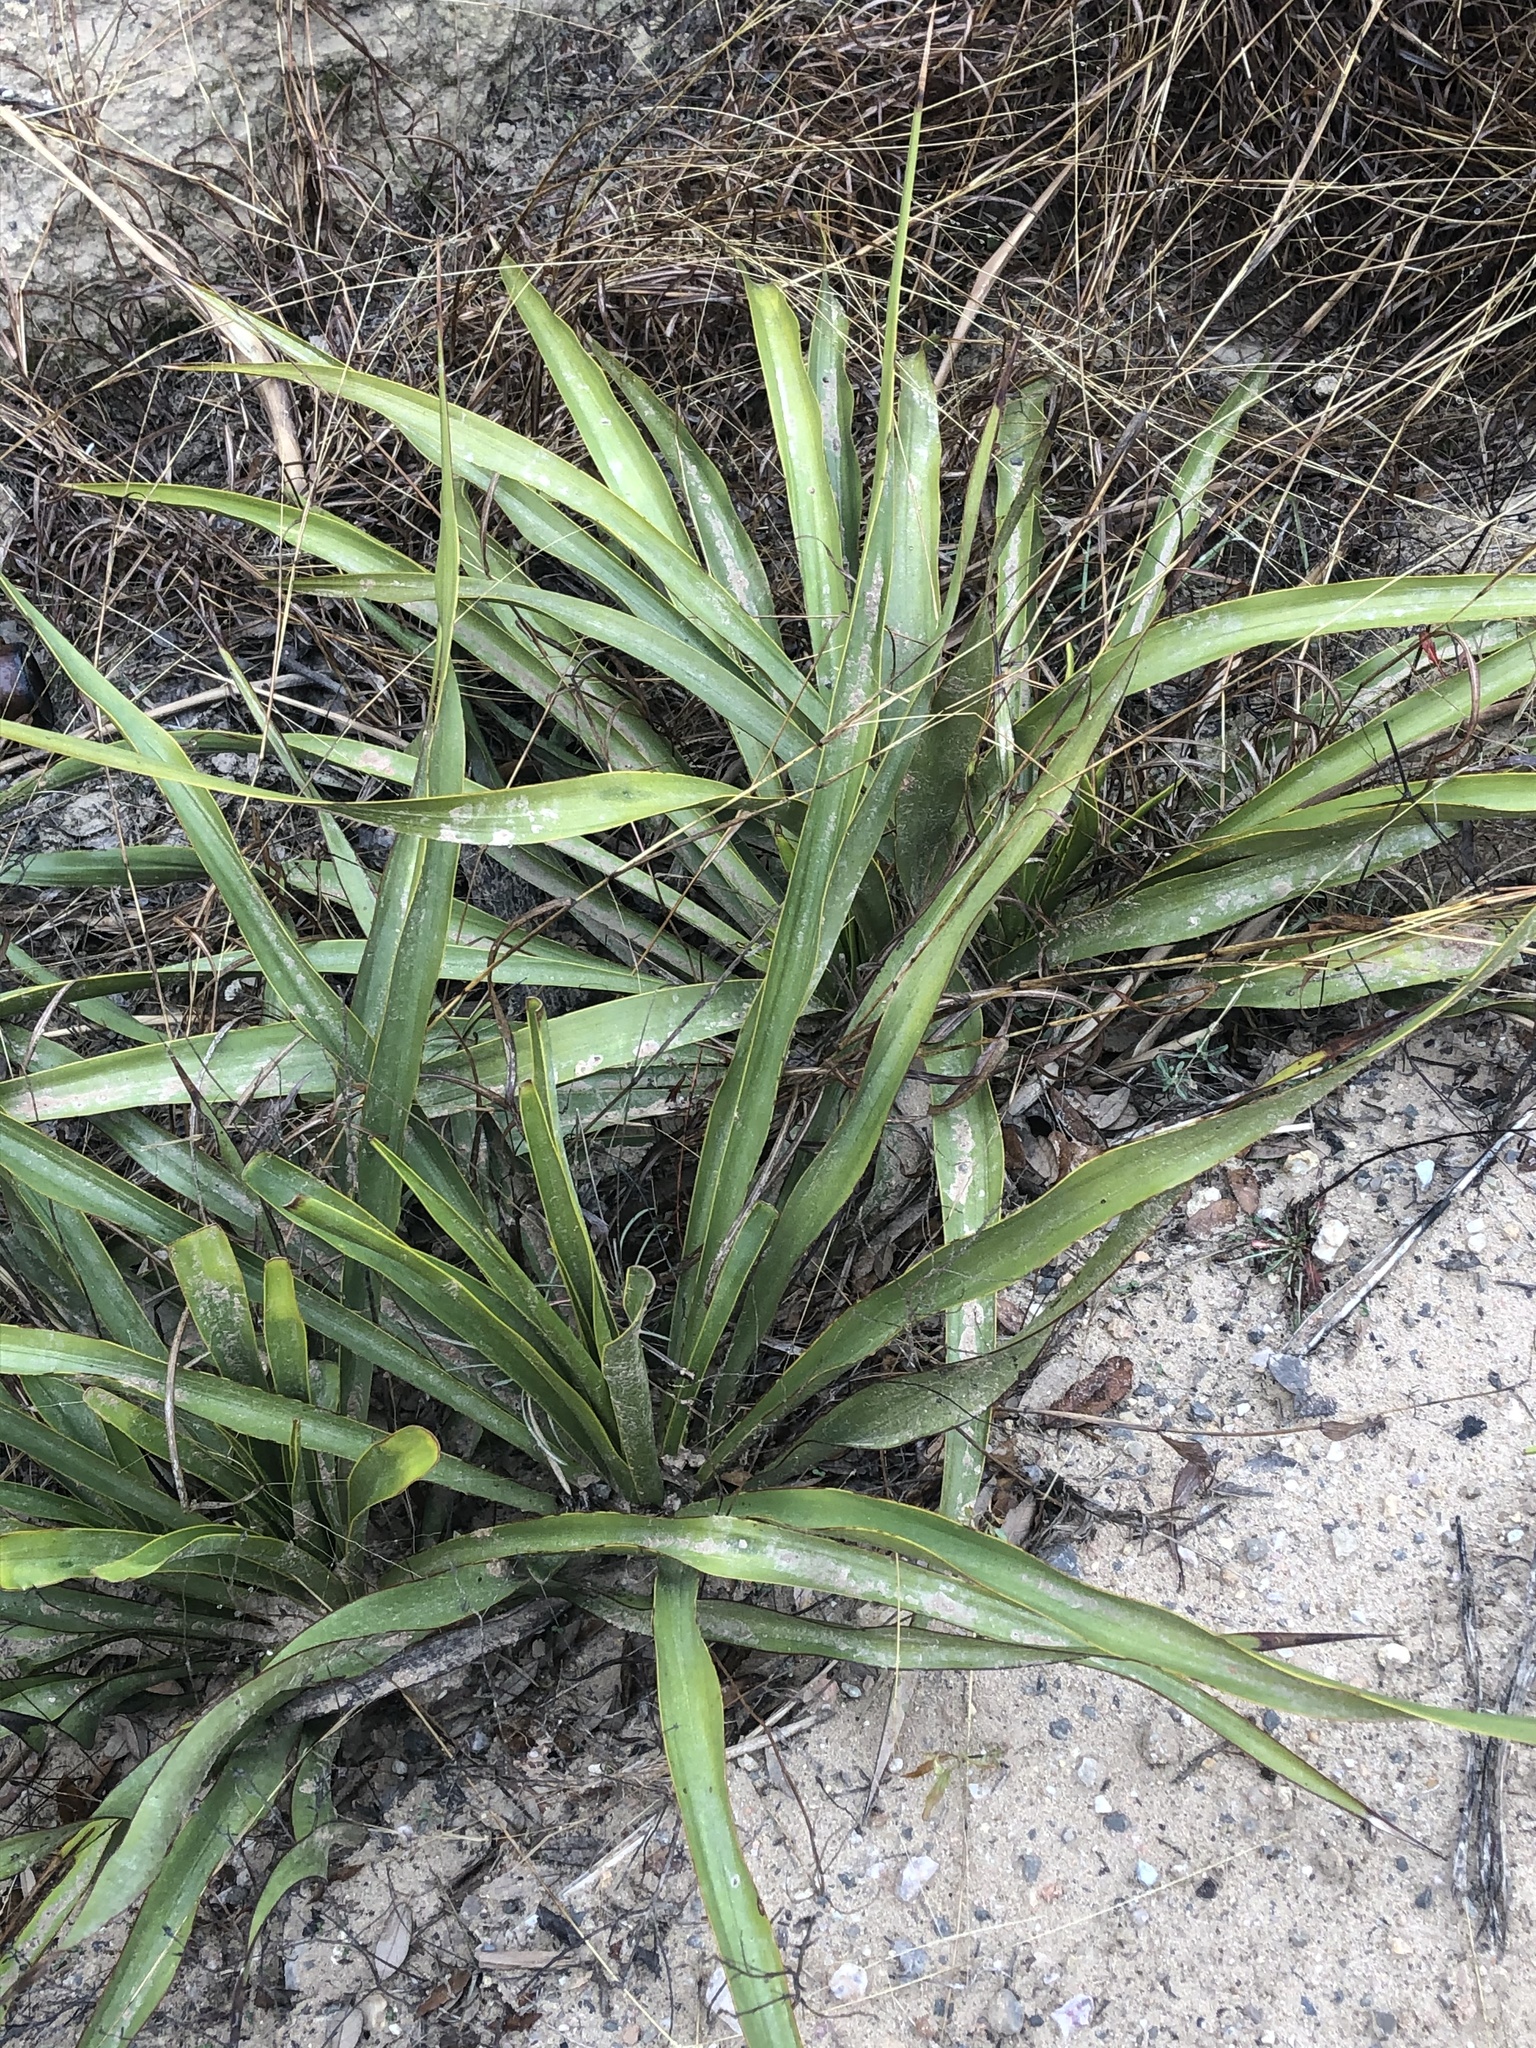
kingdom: Plantae
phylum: Tracheophyta
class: Liliopsida
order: Asparagales
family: Asparagaceae
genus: Yucca
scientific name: Yucca rupicola
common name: Twisted-leaf spanish-dagger
